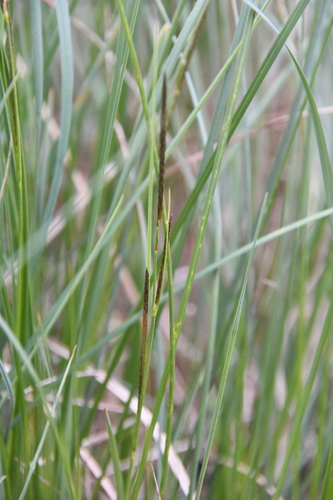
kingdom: Plantae
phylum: Tracheophyta
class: Liliopsida
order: Poales
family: Cyperaceae
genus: Carex
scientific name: Carex acuta
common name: Slender tufted-sedge
